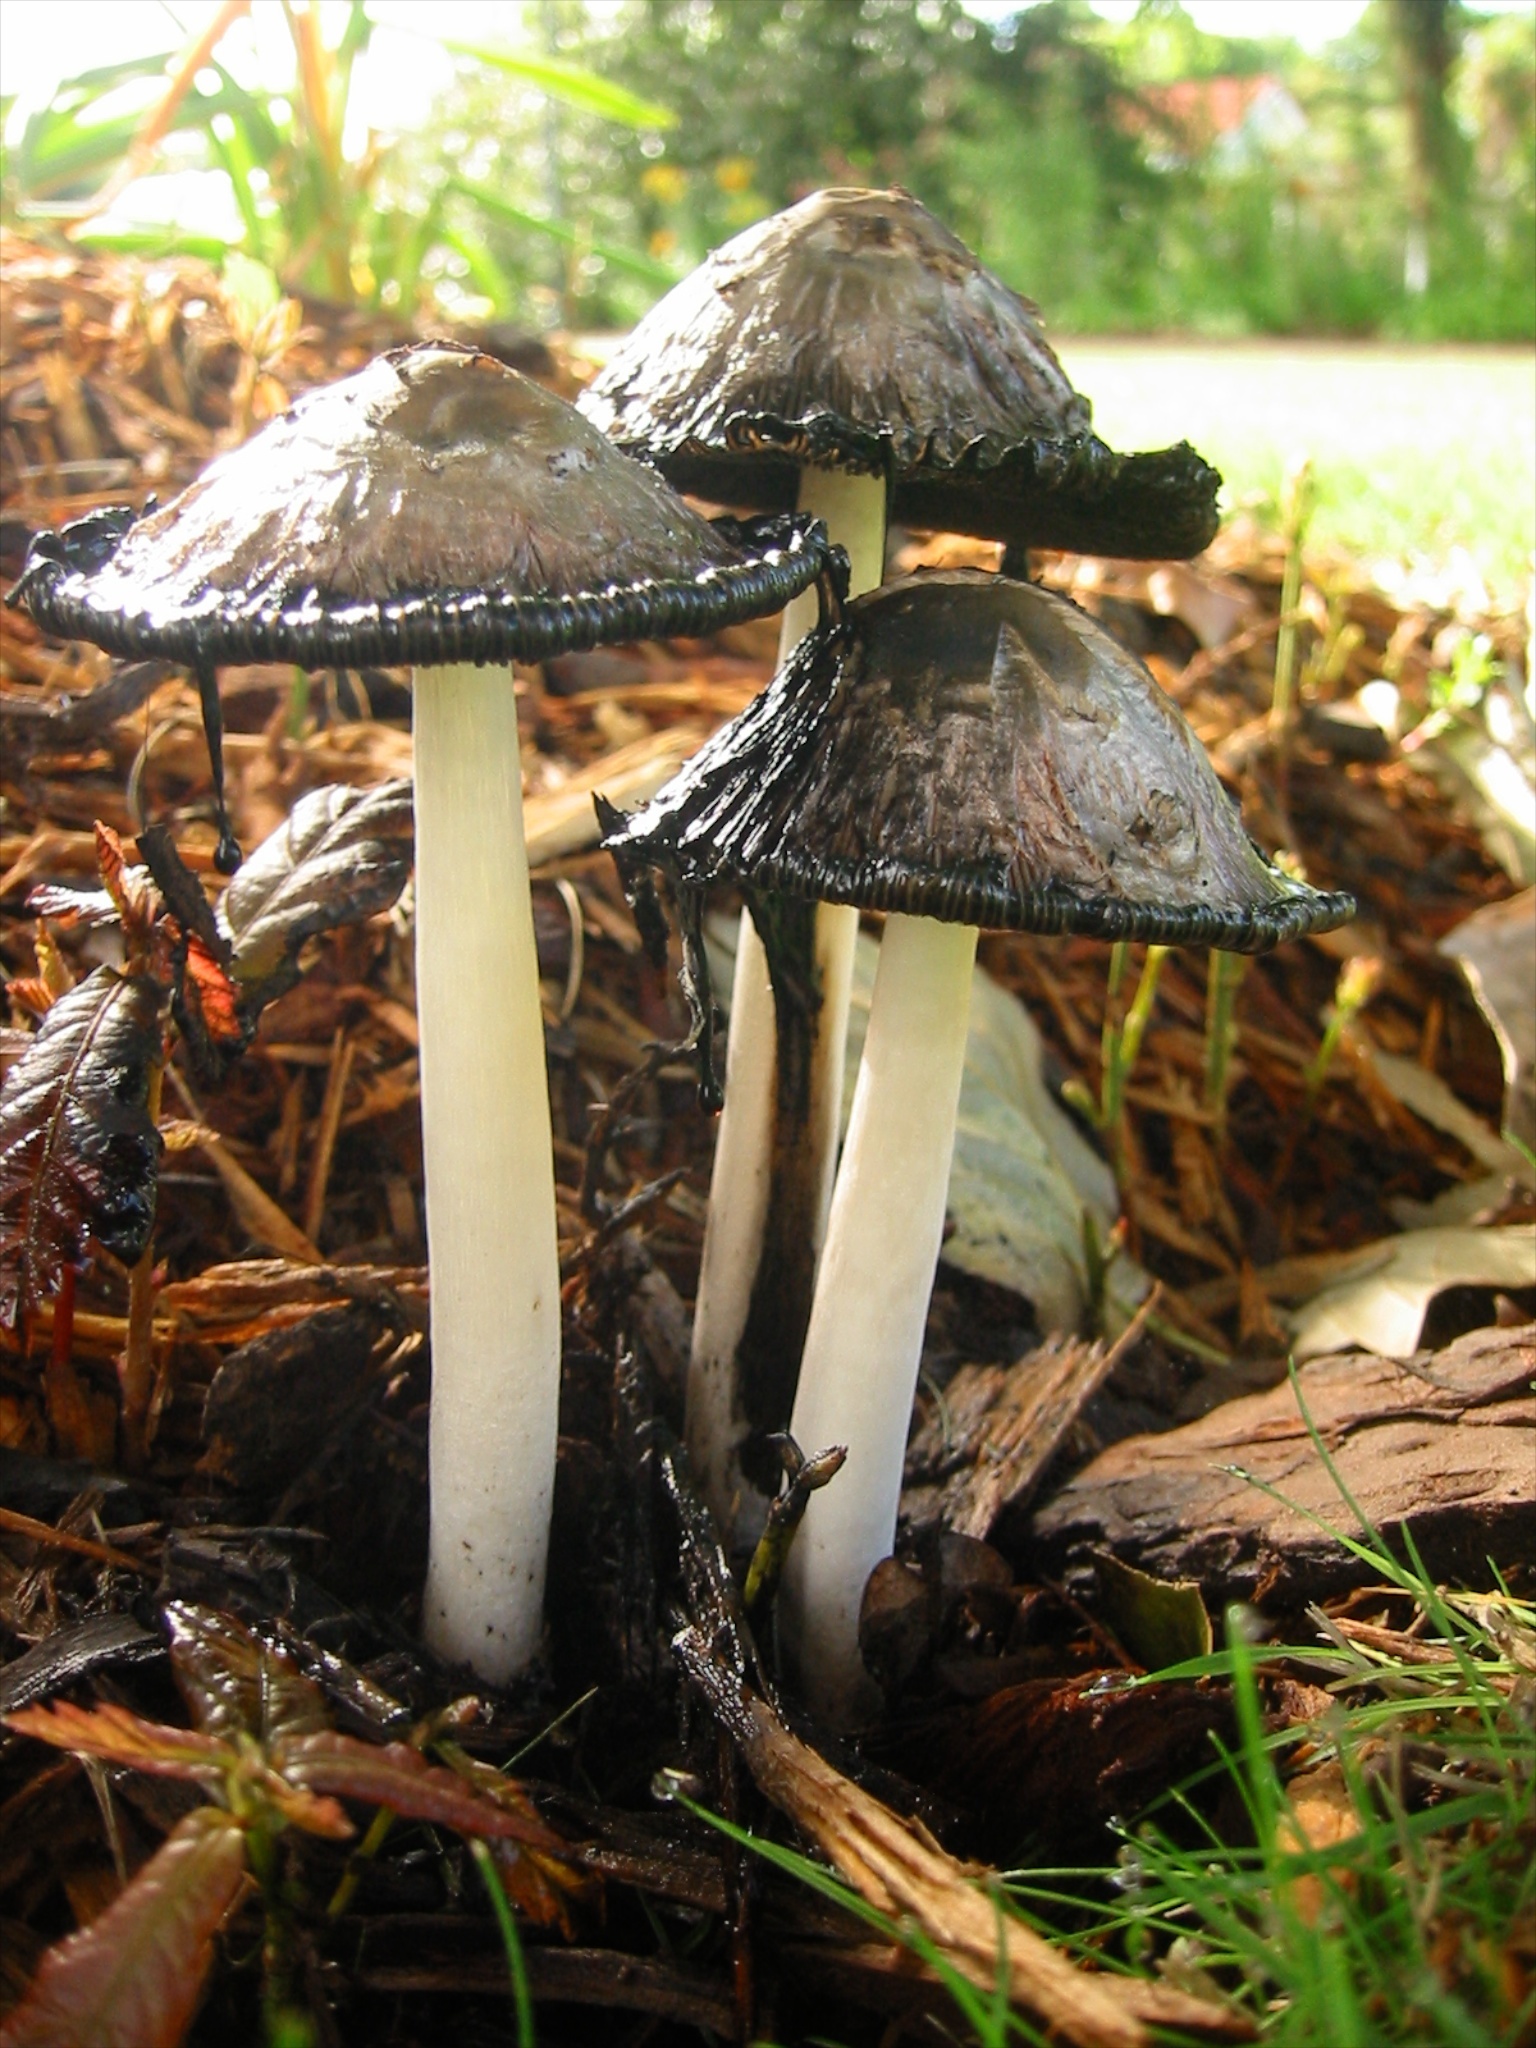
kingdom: Fungi
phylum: Basidiomycota
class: Agaricomycetes
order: Agaricales
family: Agaricaceae
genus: Coprinus
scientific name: Coprinus comatus
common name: Lawyer's wig
